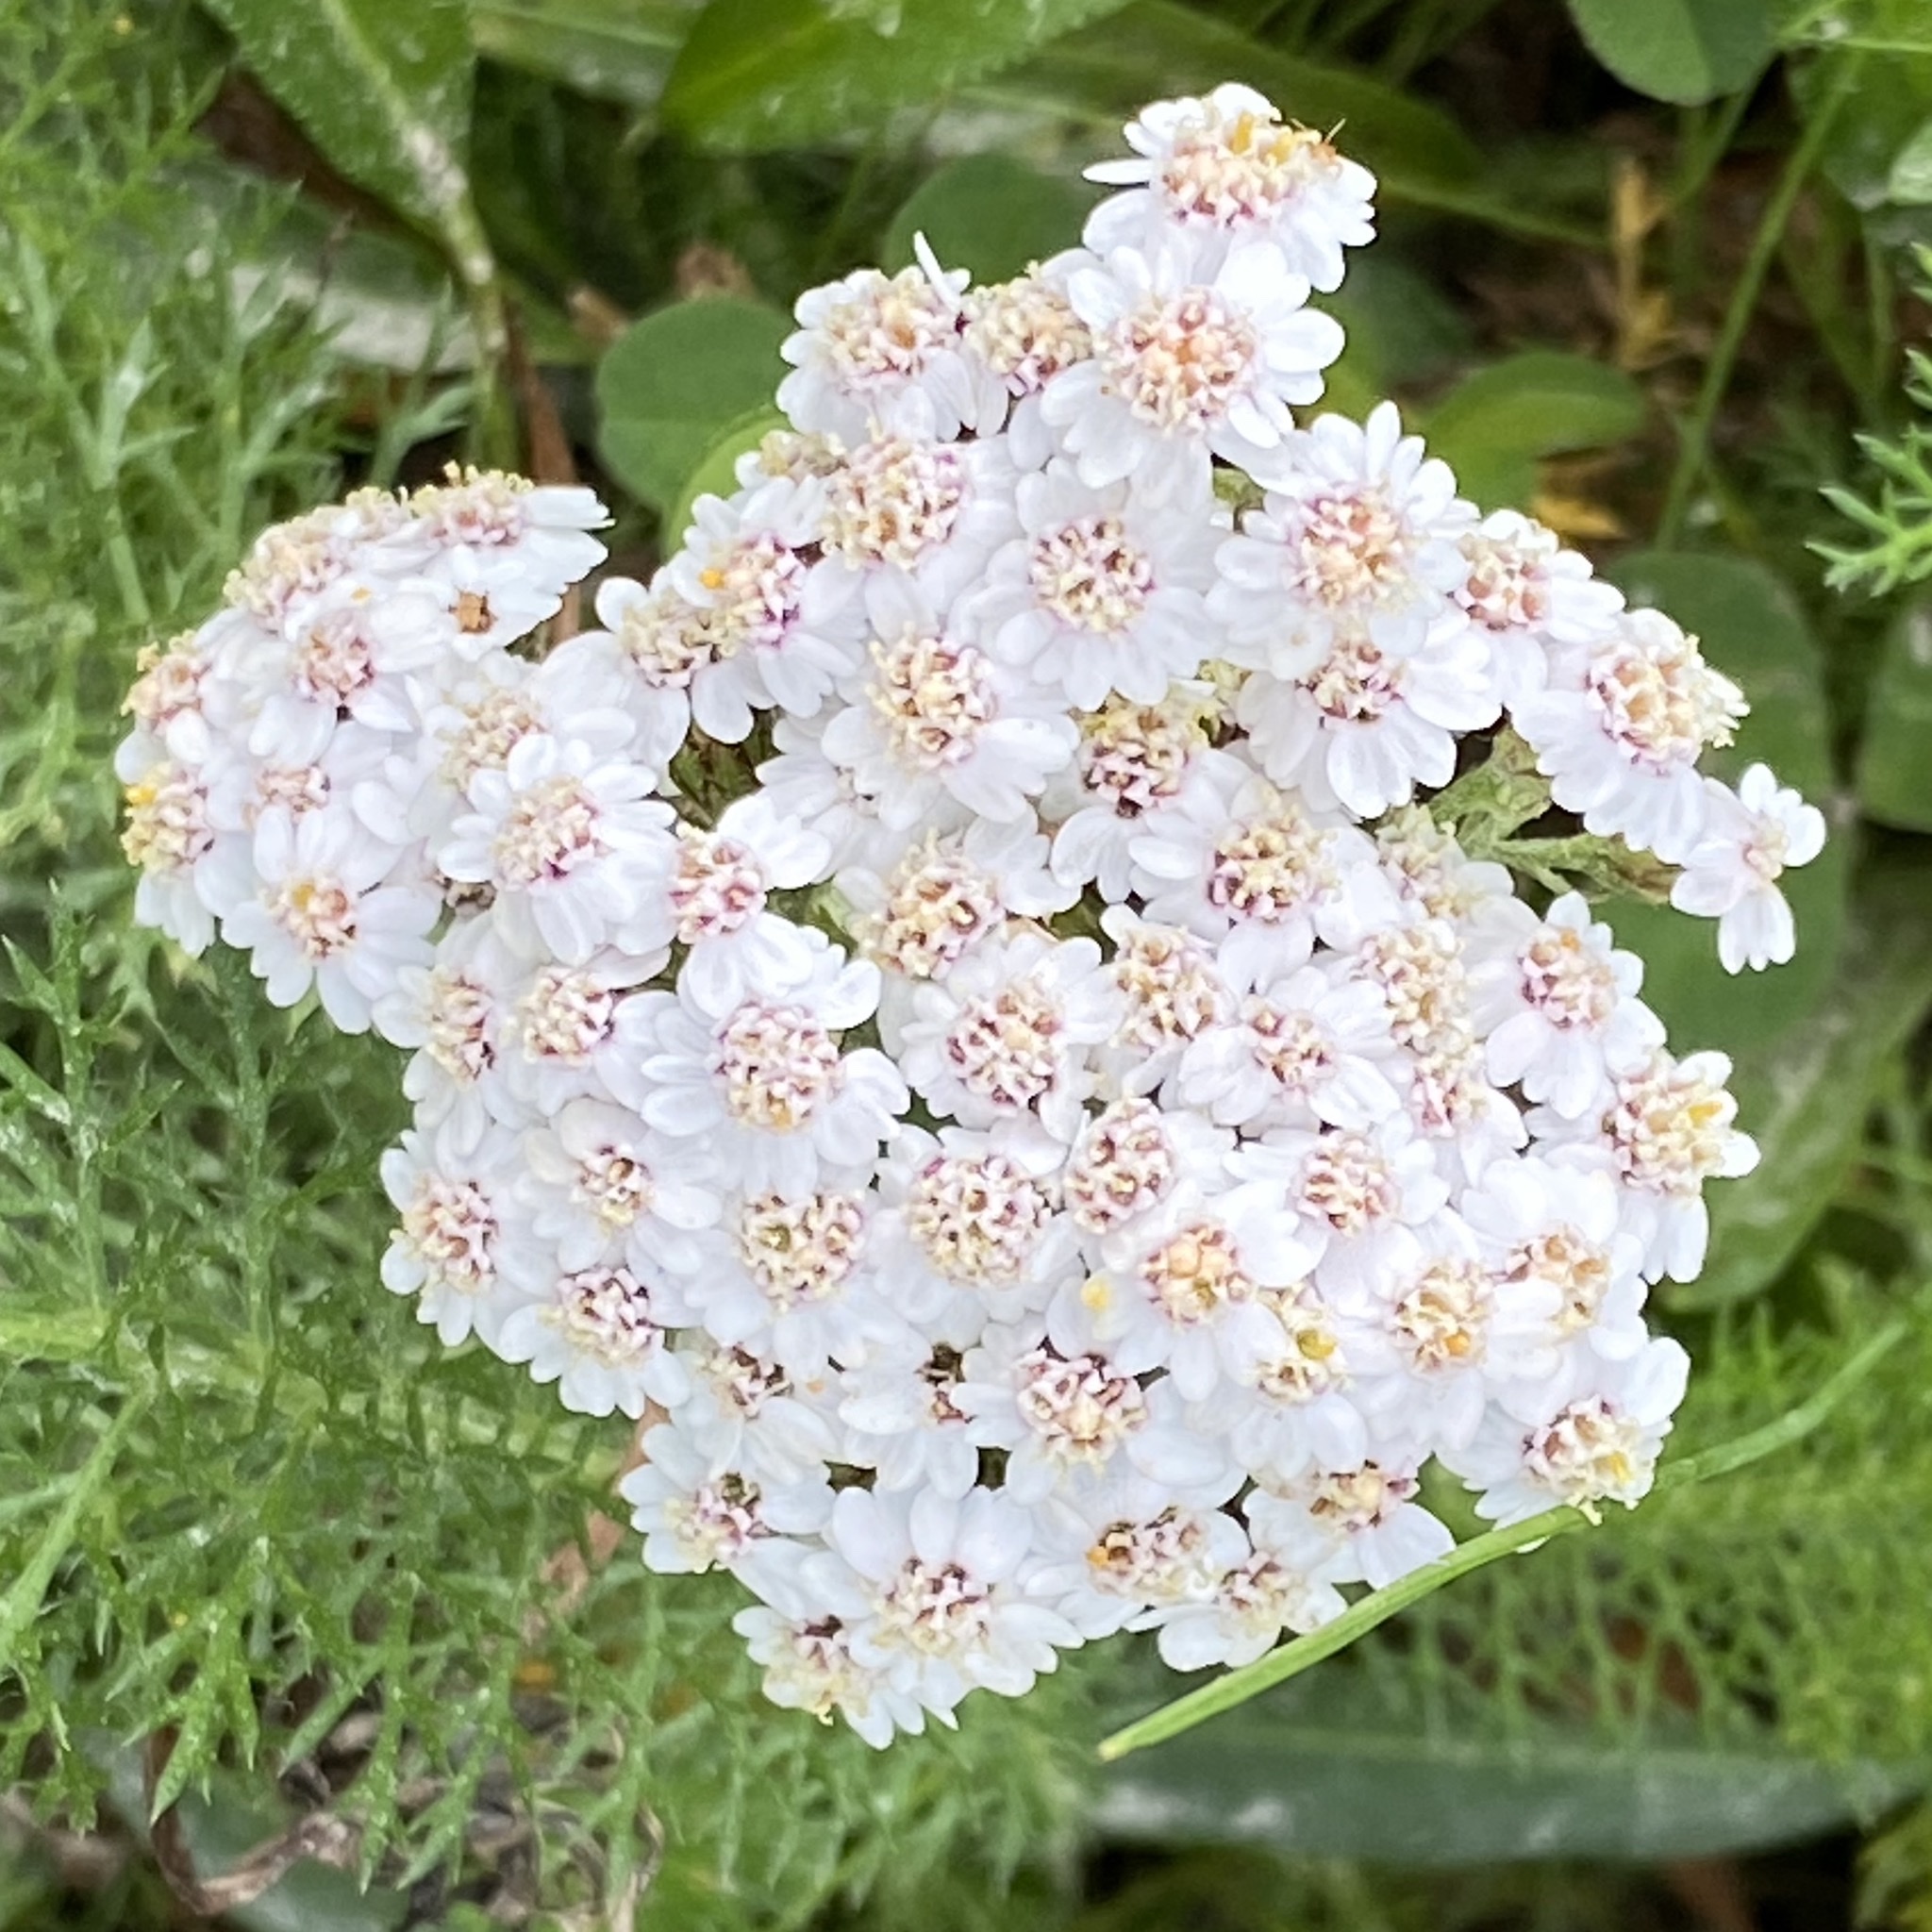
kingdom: Plantae
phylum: Tracheophyta
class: Magnoliopsida
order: Asterales
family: Asteraceae
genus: Achillea
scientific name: Achillea millefolium
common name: Yarrow
